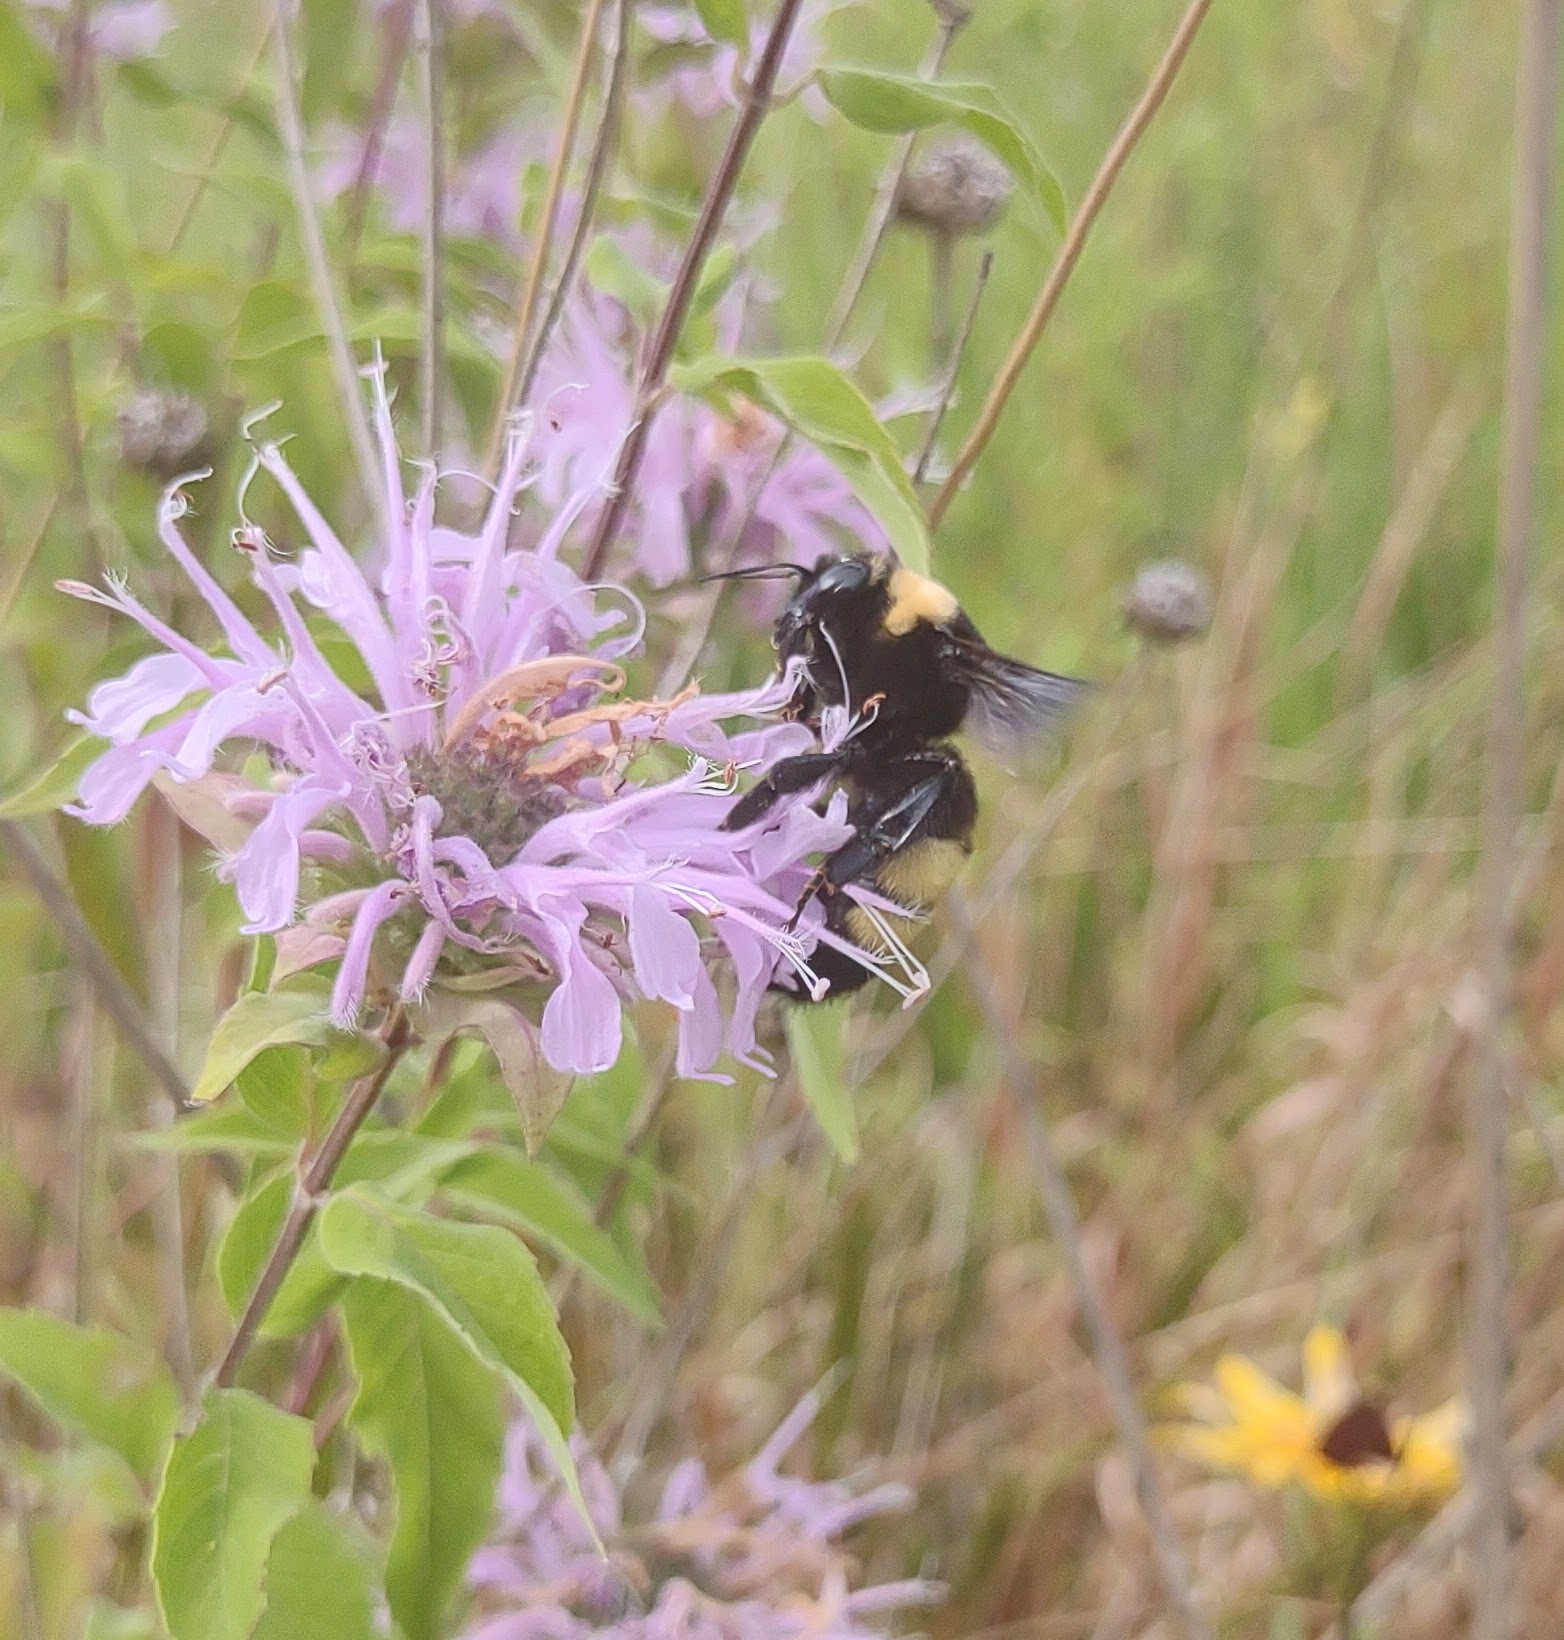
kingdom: Animalia
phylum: Arthropoda
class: Insecta
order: Hymenoptera
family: Apidae
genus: Bombus
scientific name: Bombus auricomus
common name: Black and gold bumble bee
